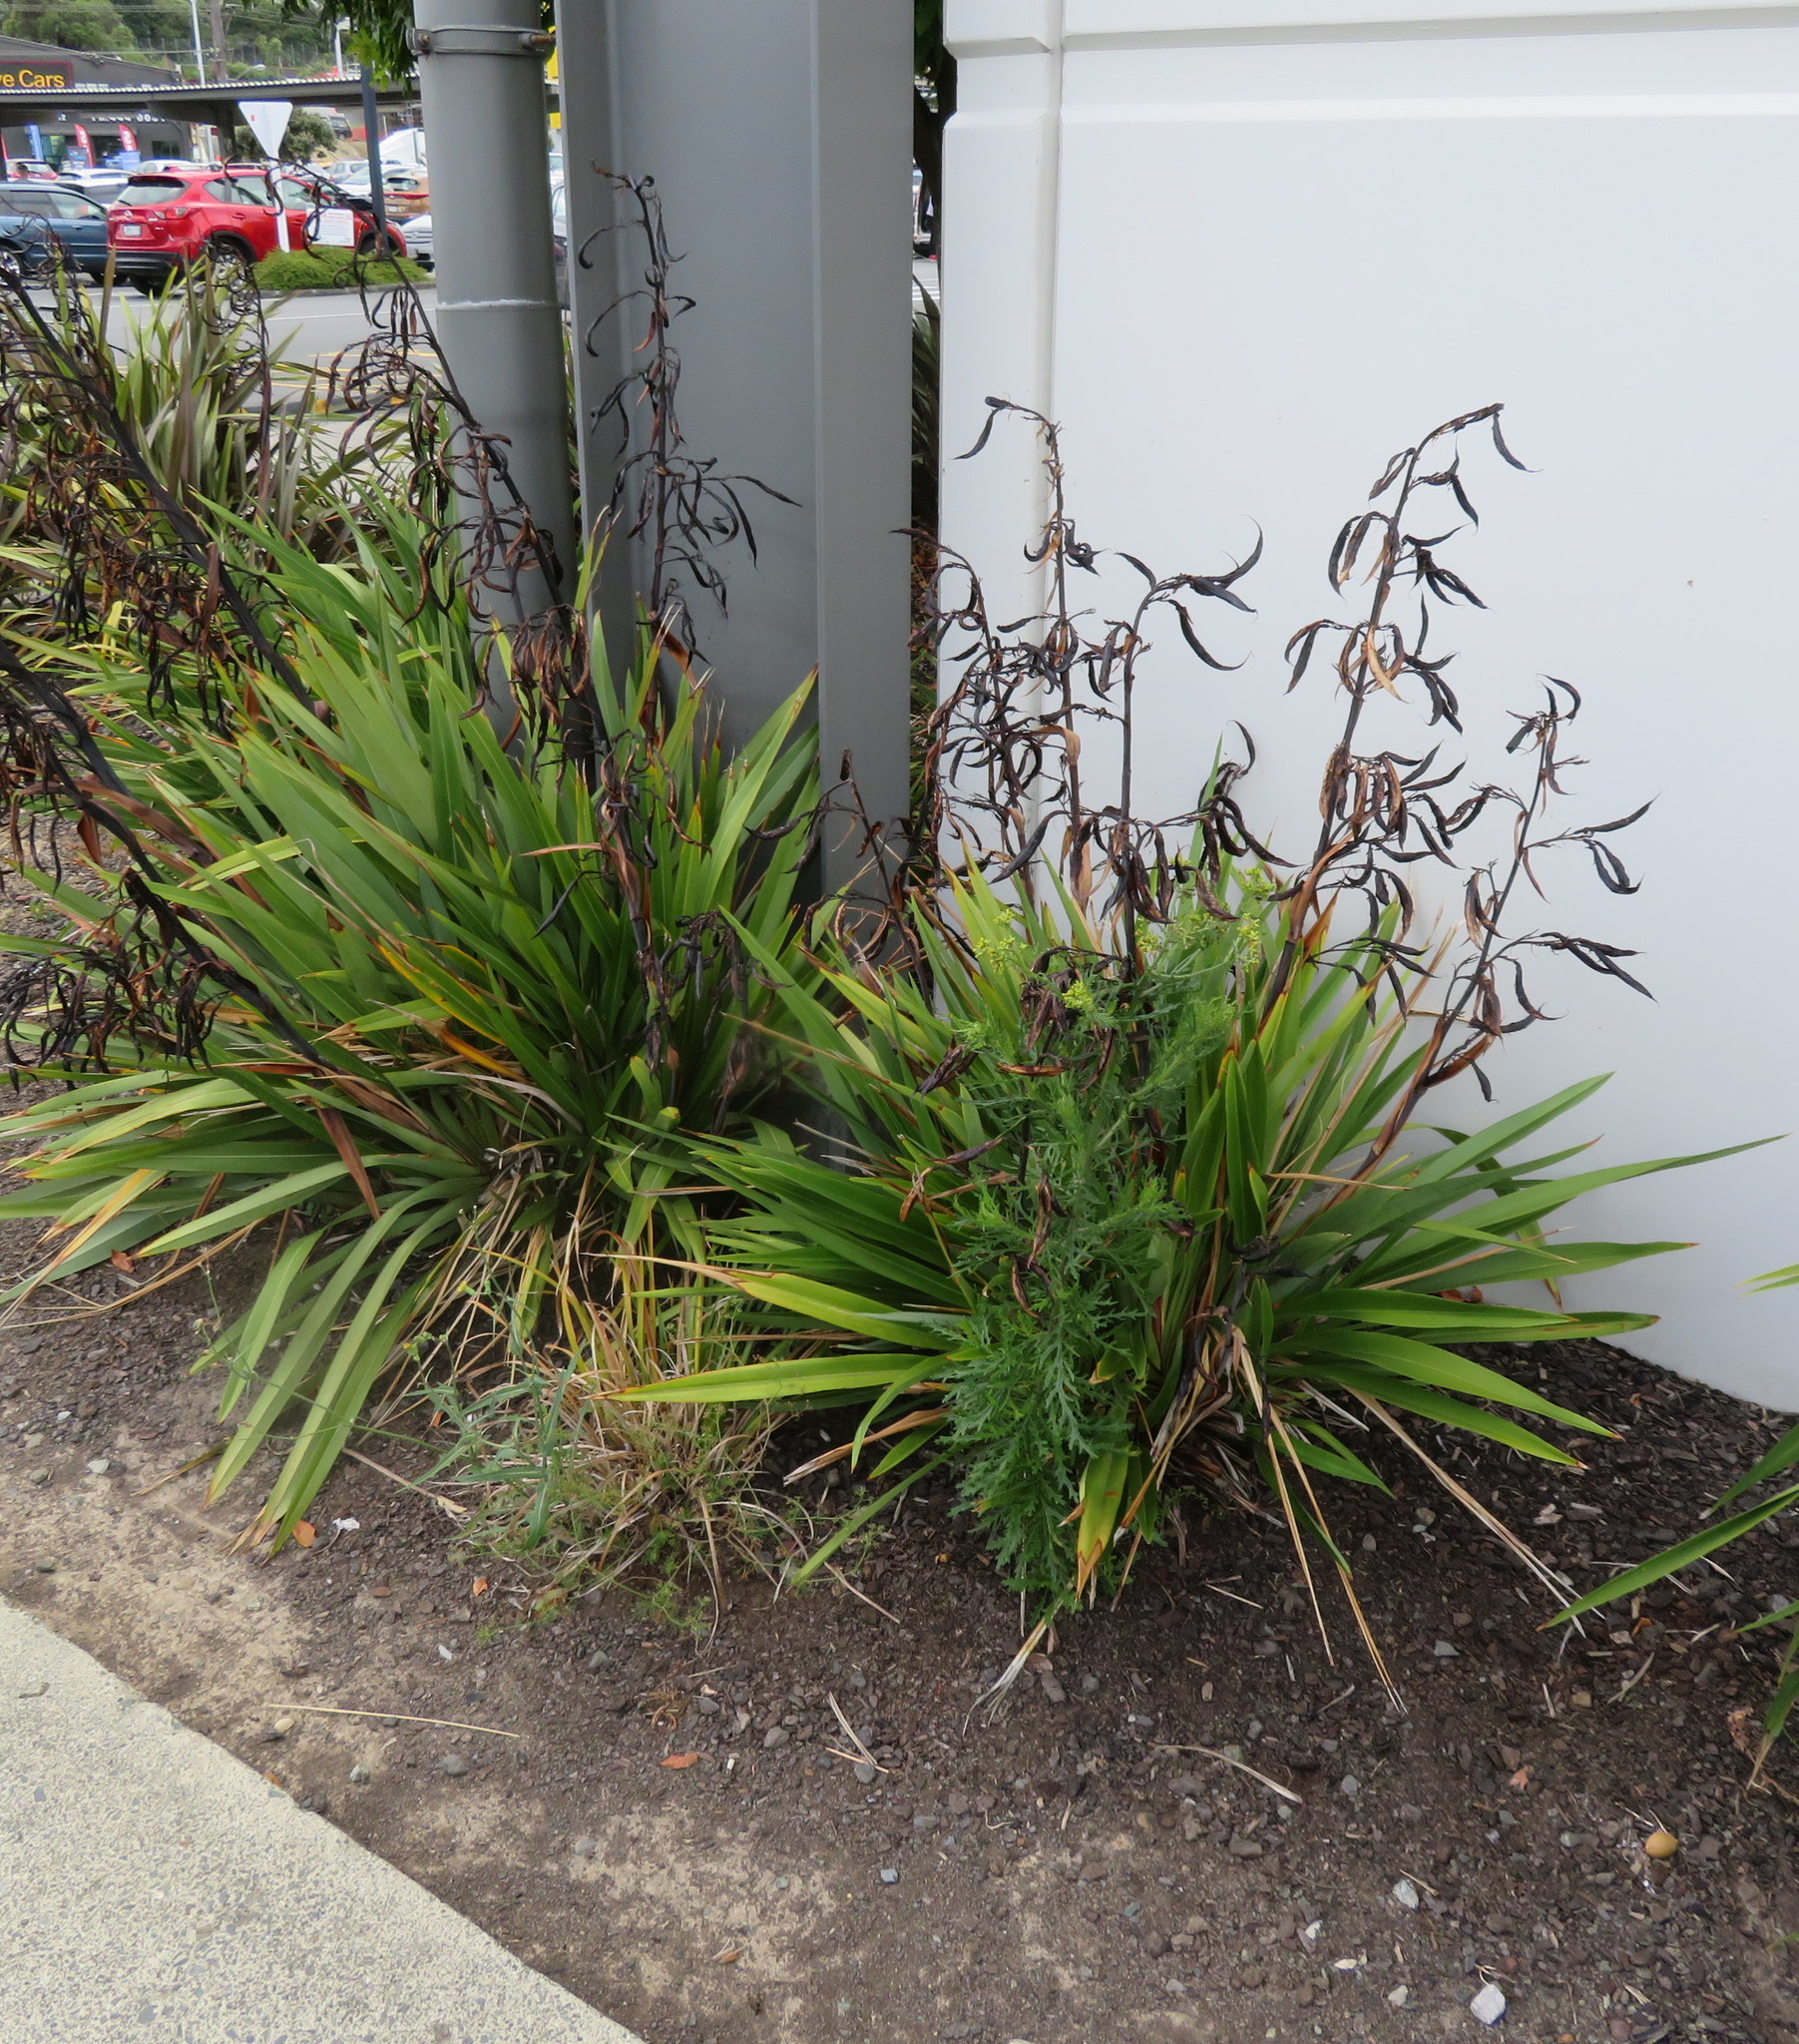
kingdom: Plantae
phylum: Tracheophyta
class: Magnoliopsida
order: Asterales
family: Asteraceae
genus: Senecio
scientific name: Senecio esleri
